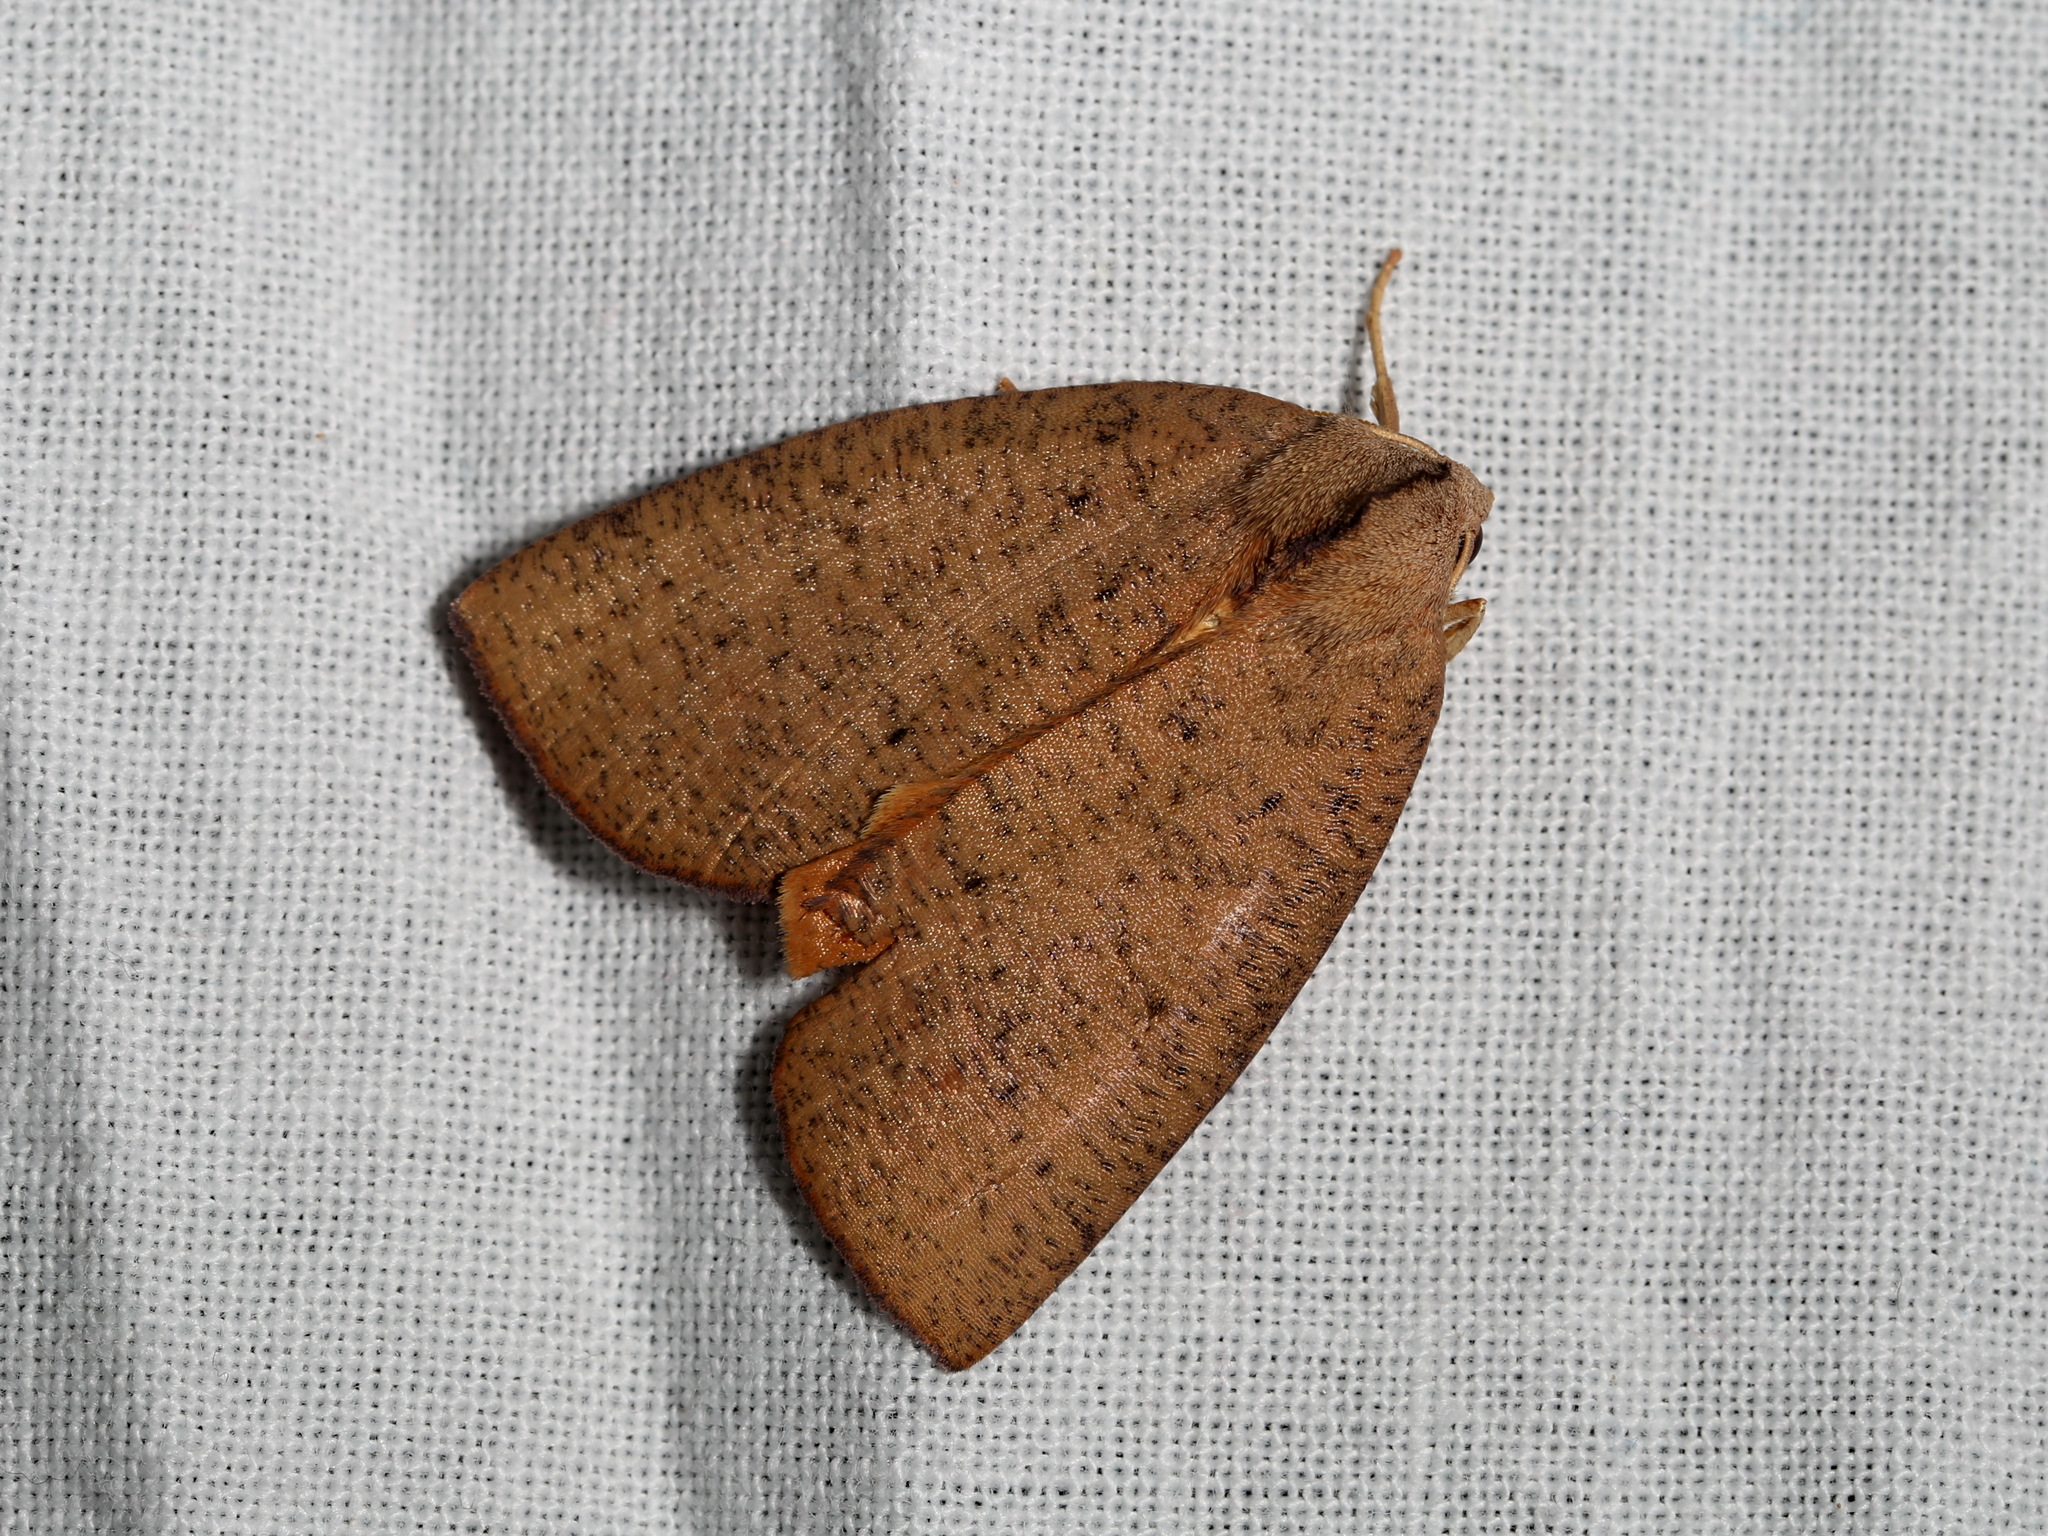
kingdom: Animalia
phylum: Arthropoda
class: Insecta
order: Lepidoptera
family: Geometridae
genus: Fisera
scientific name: Fisera bradymorpha
